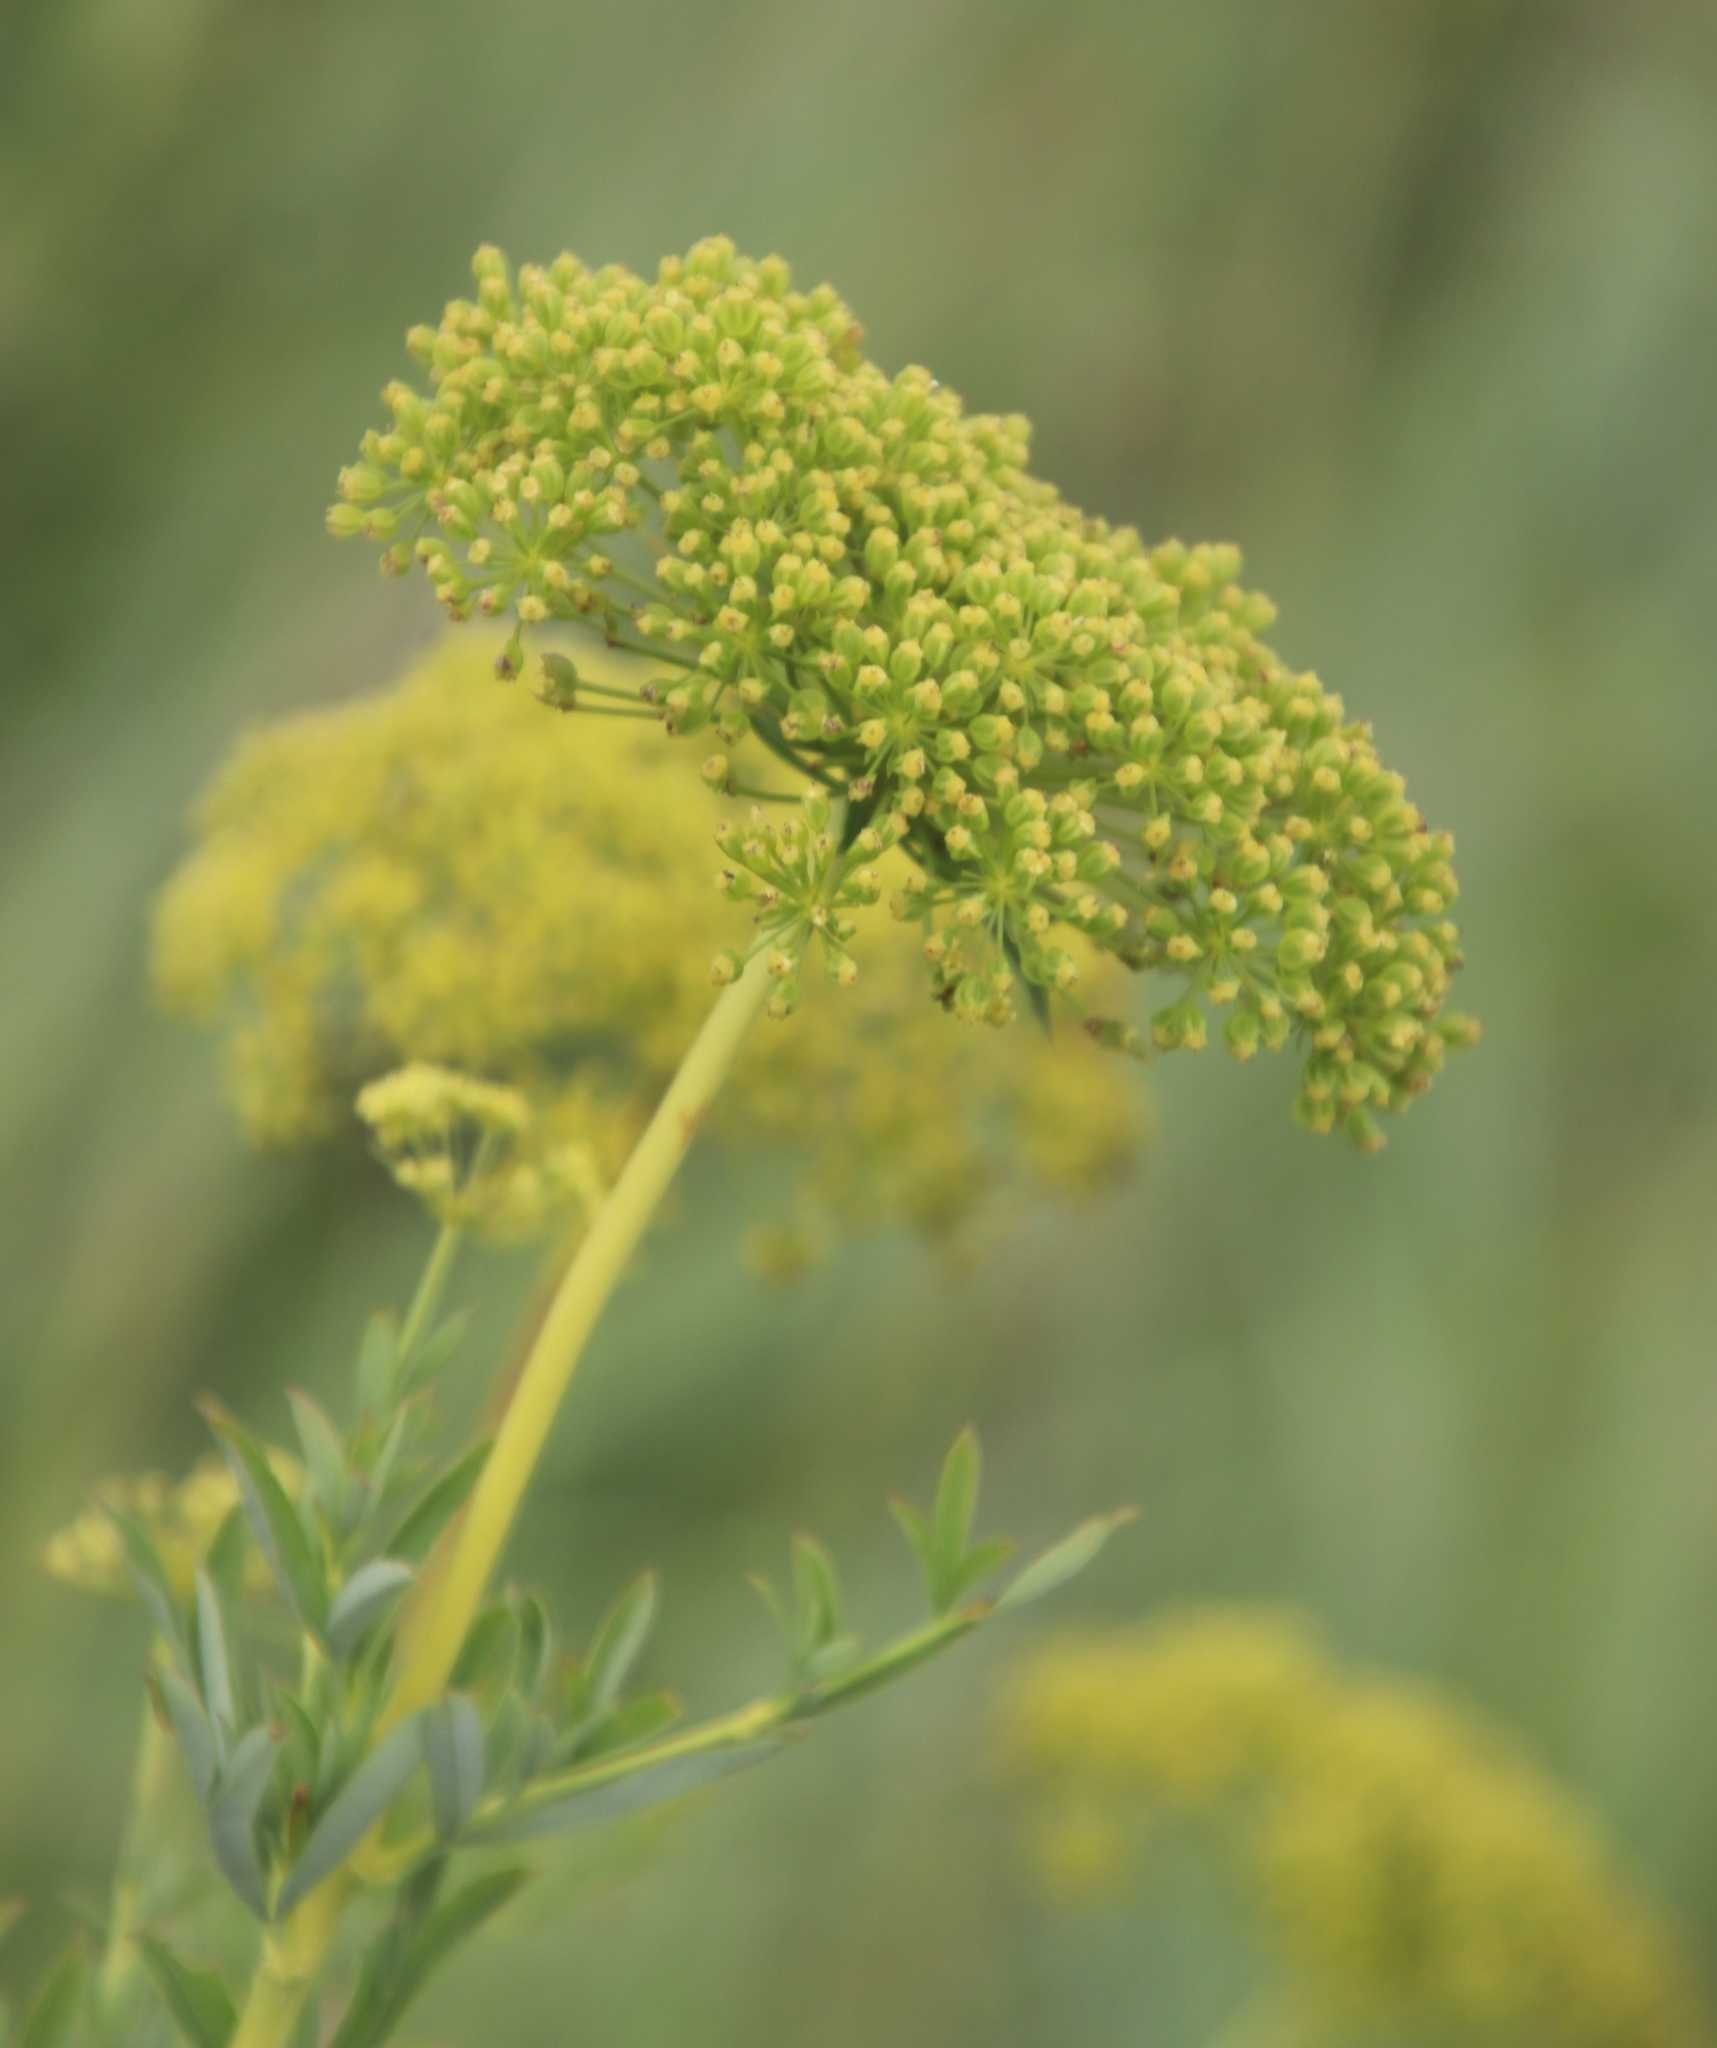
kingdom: Plantae
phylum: Tracheophyta
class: Magnoliopsida
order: Apiales
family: Apiaceae
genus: Heteromorpha
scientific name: Heteromorpha involucrata
